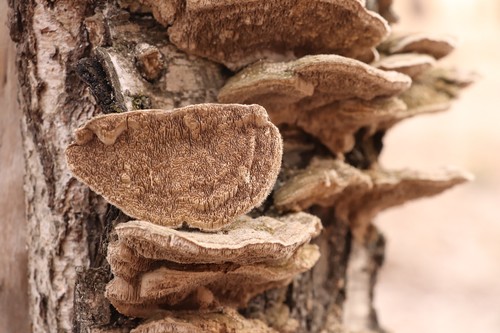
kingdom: Fungi
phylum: Basidiomycota
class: Agaricomycetes
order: Polyporales
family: Cerrenaceae
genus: Cerrena
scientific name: Cerrena unicolor
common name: Mossy maze polypore
